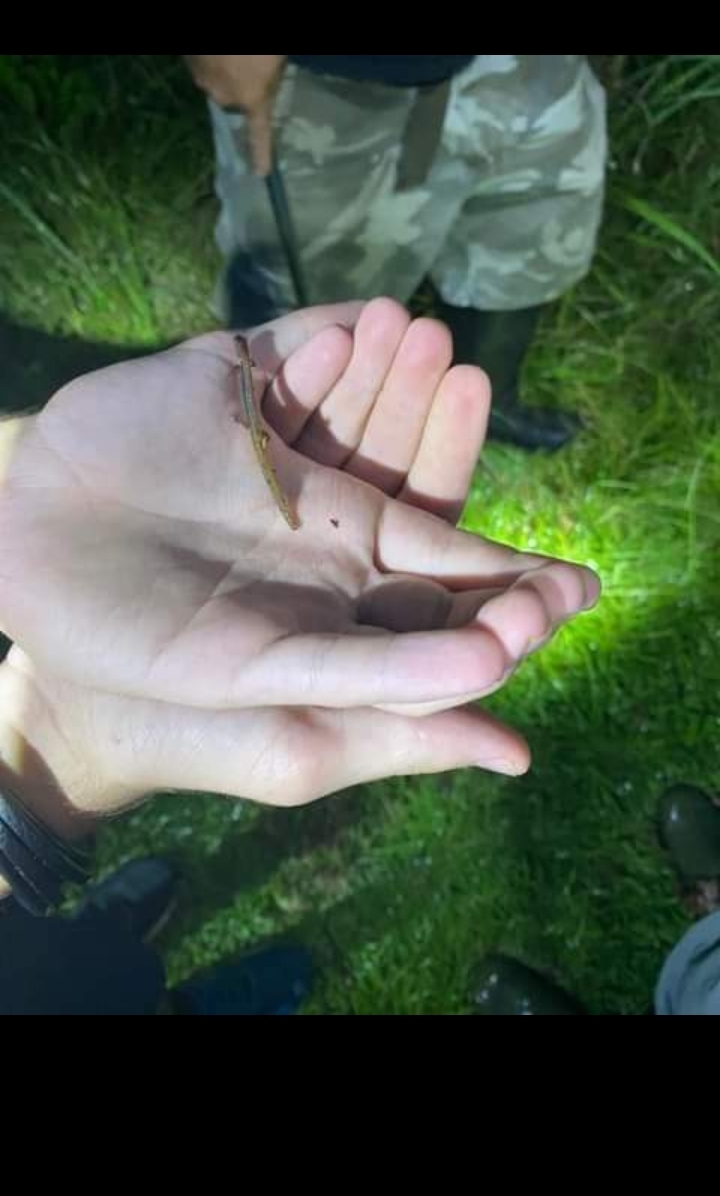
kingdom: Animalia
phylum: Chordata
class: Amphibia
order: Caudata
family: Plethodontidae
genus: Eurycea
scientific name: Eurycea paludicola
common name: Western dwarf salamander
